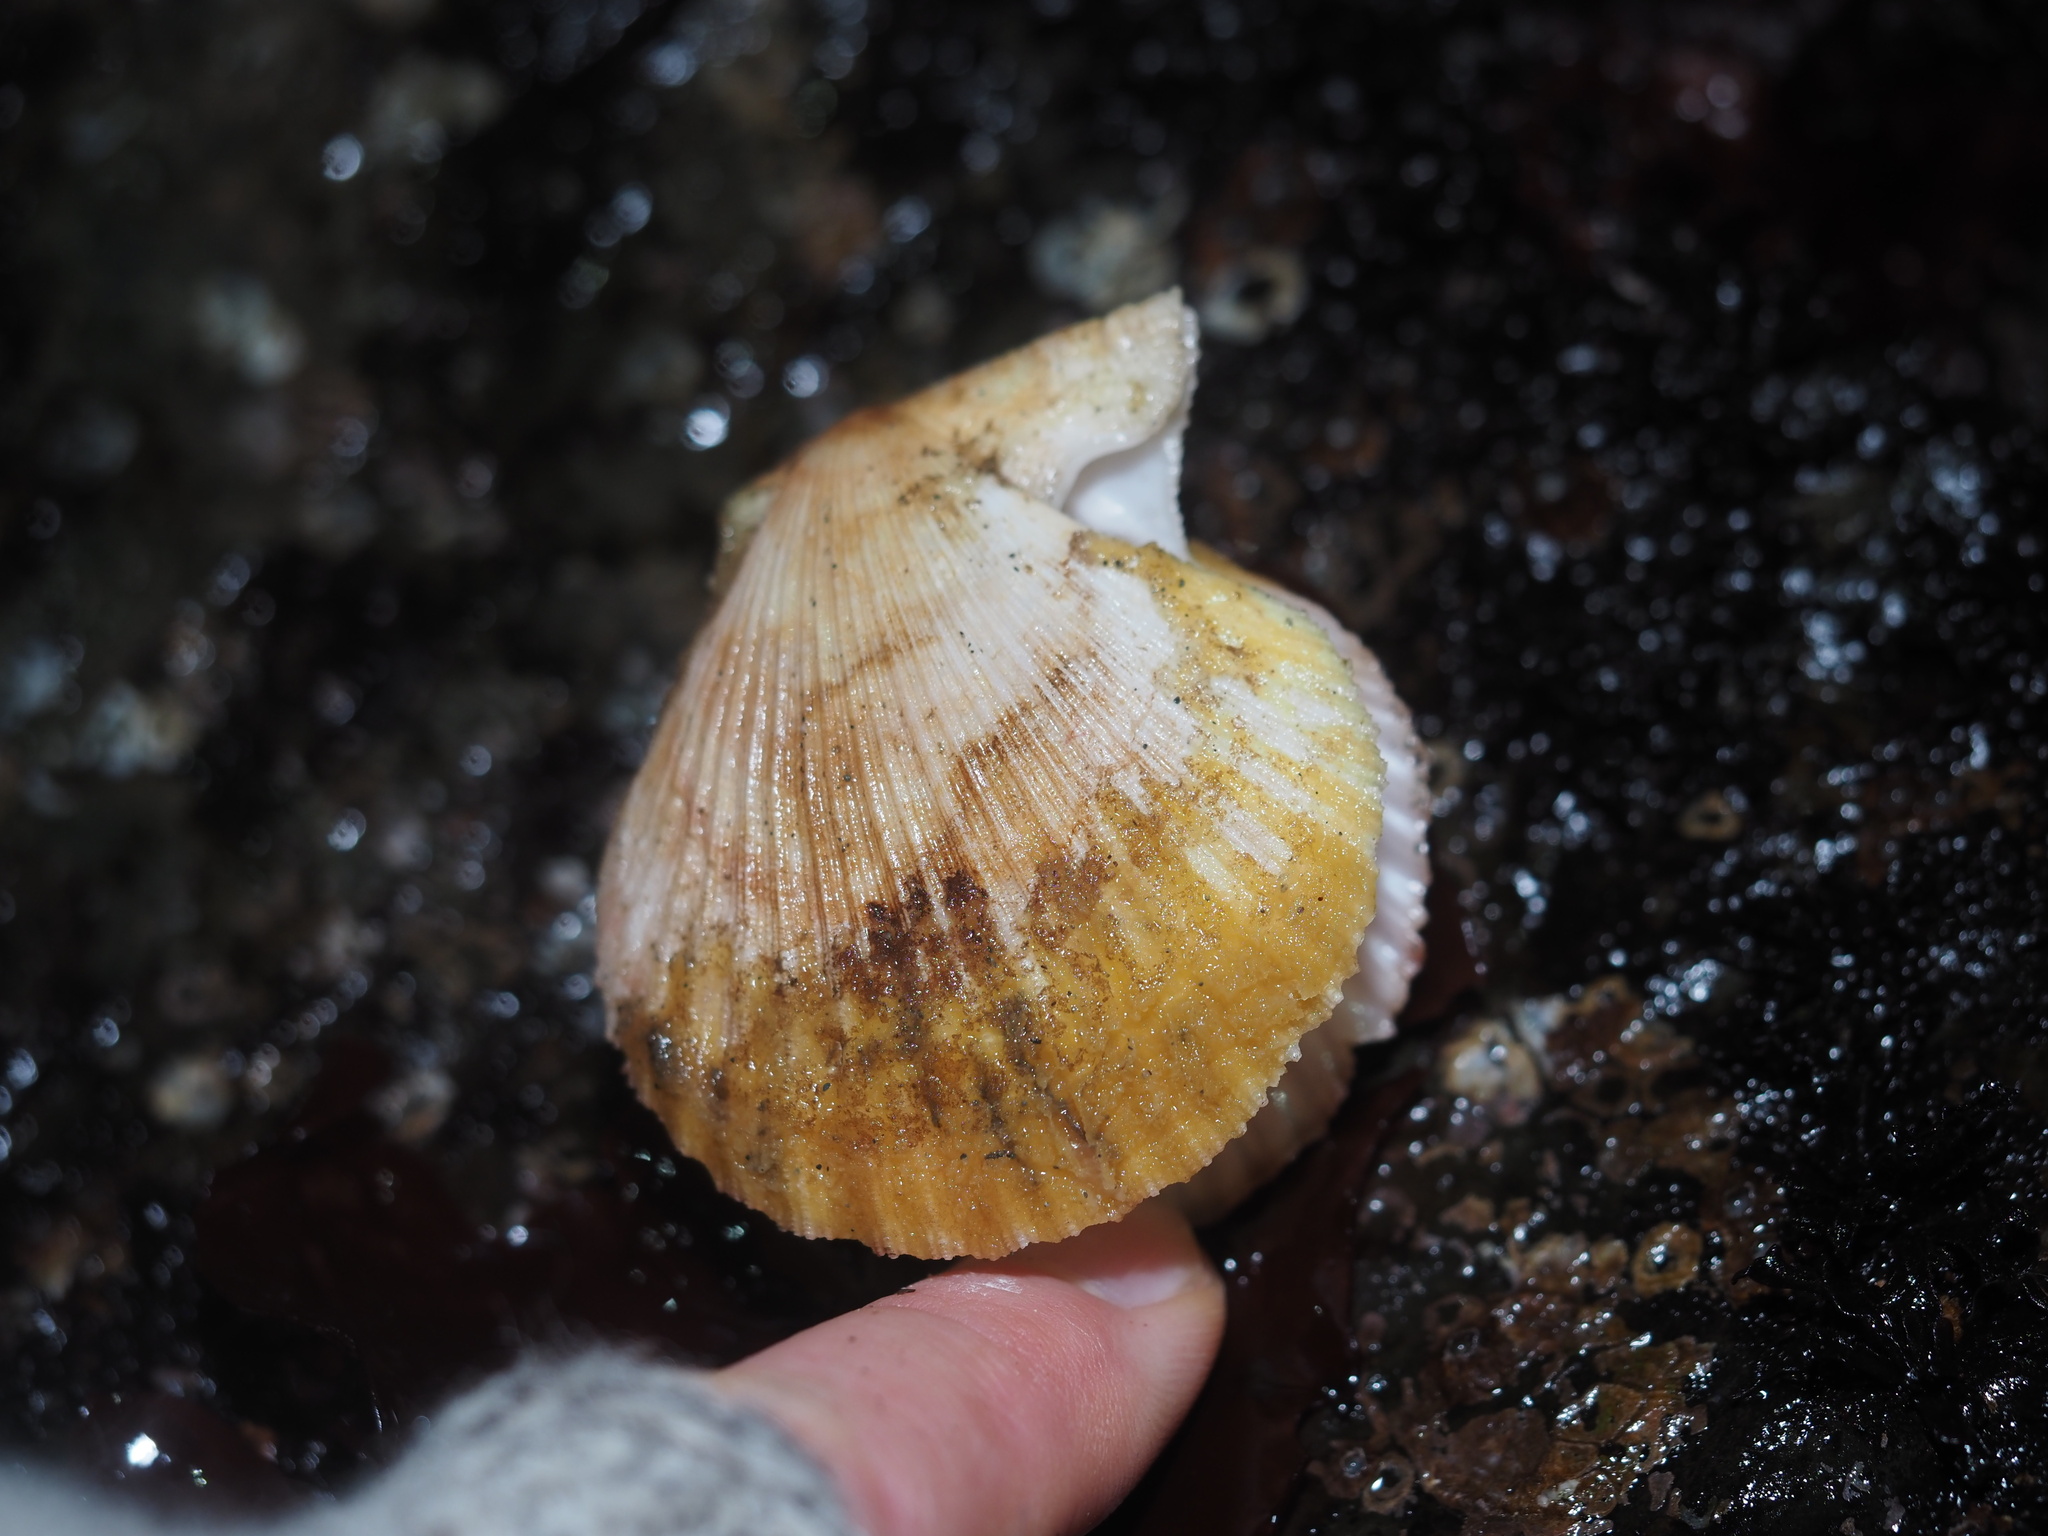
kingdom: Animalia
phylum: Mollusca
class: Bivalvia
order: Pectinida
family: Pectinidae
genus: Chlamys
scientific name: Chlamys hastata
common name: Spear scallop
